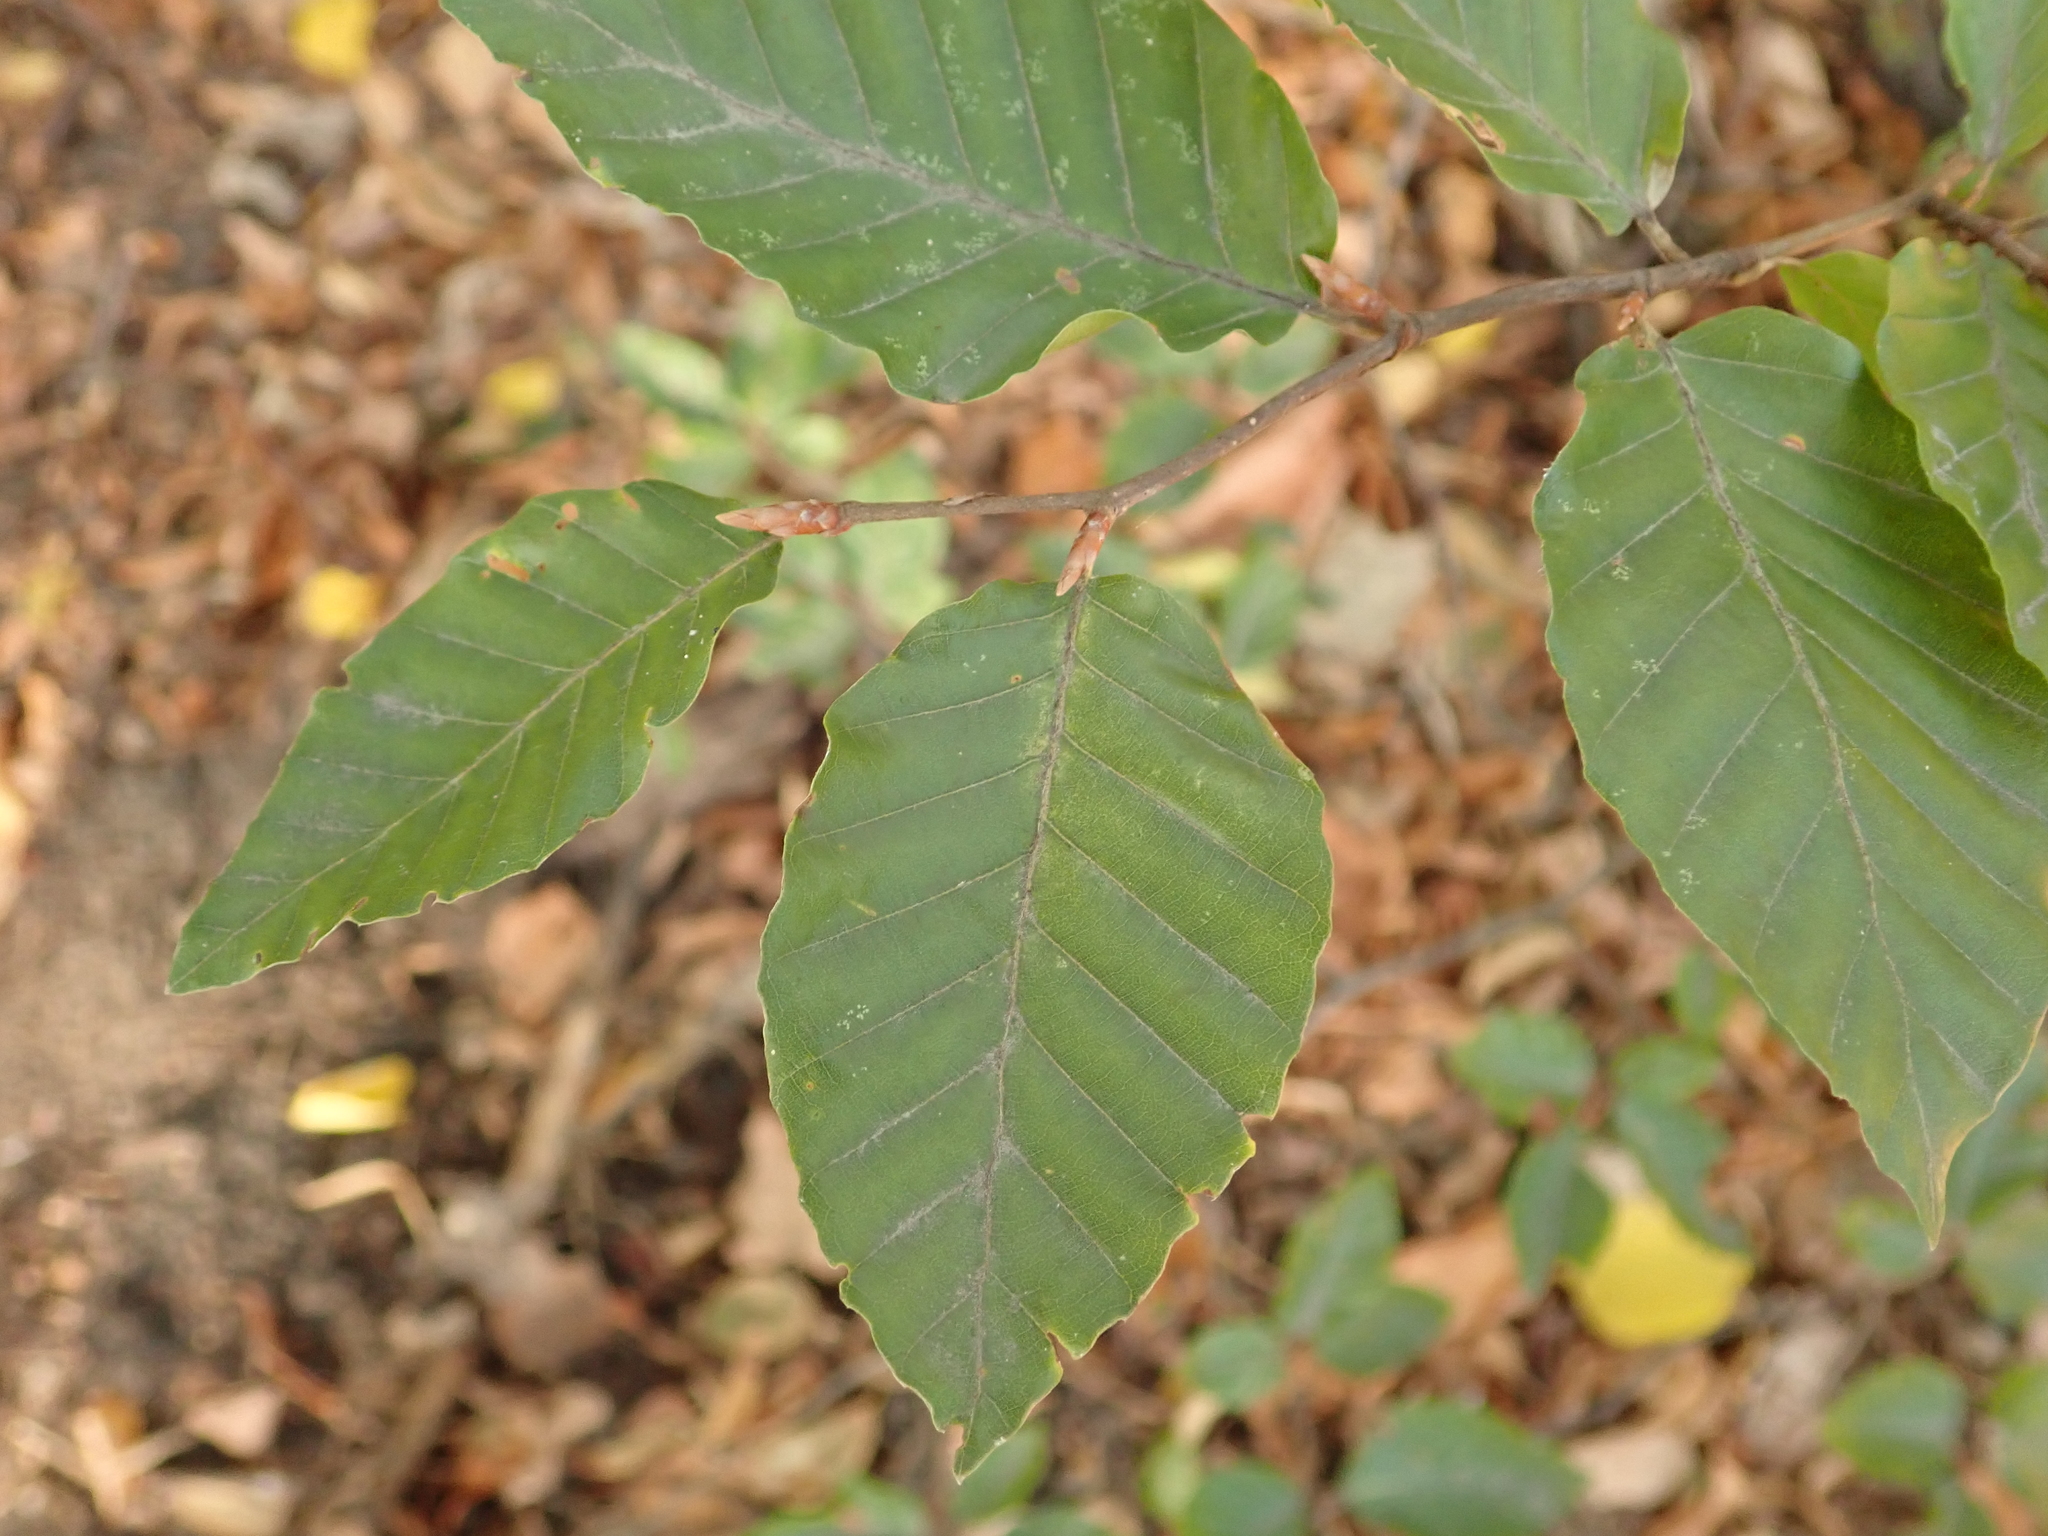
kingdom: Plantae
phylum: Tracheophyta
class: Magnoliopsida
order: Fagales
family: Fagaceae
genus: Fagus
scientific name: Fagus sylvatica
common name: Beech
